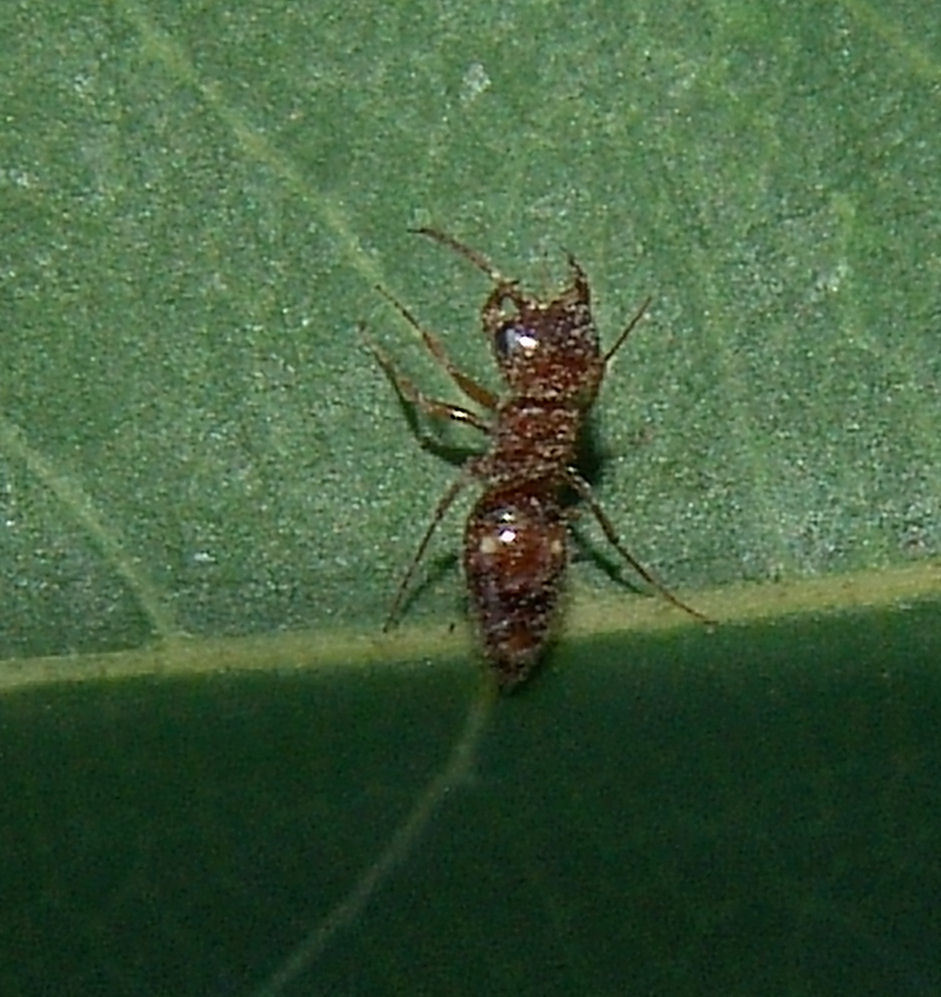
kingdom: Animalia
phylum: Arthropoda
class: Insecta
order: Hymenoptera
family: Myrmosidae
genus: Myrmosula
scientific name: Myrmosula
